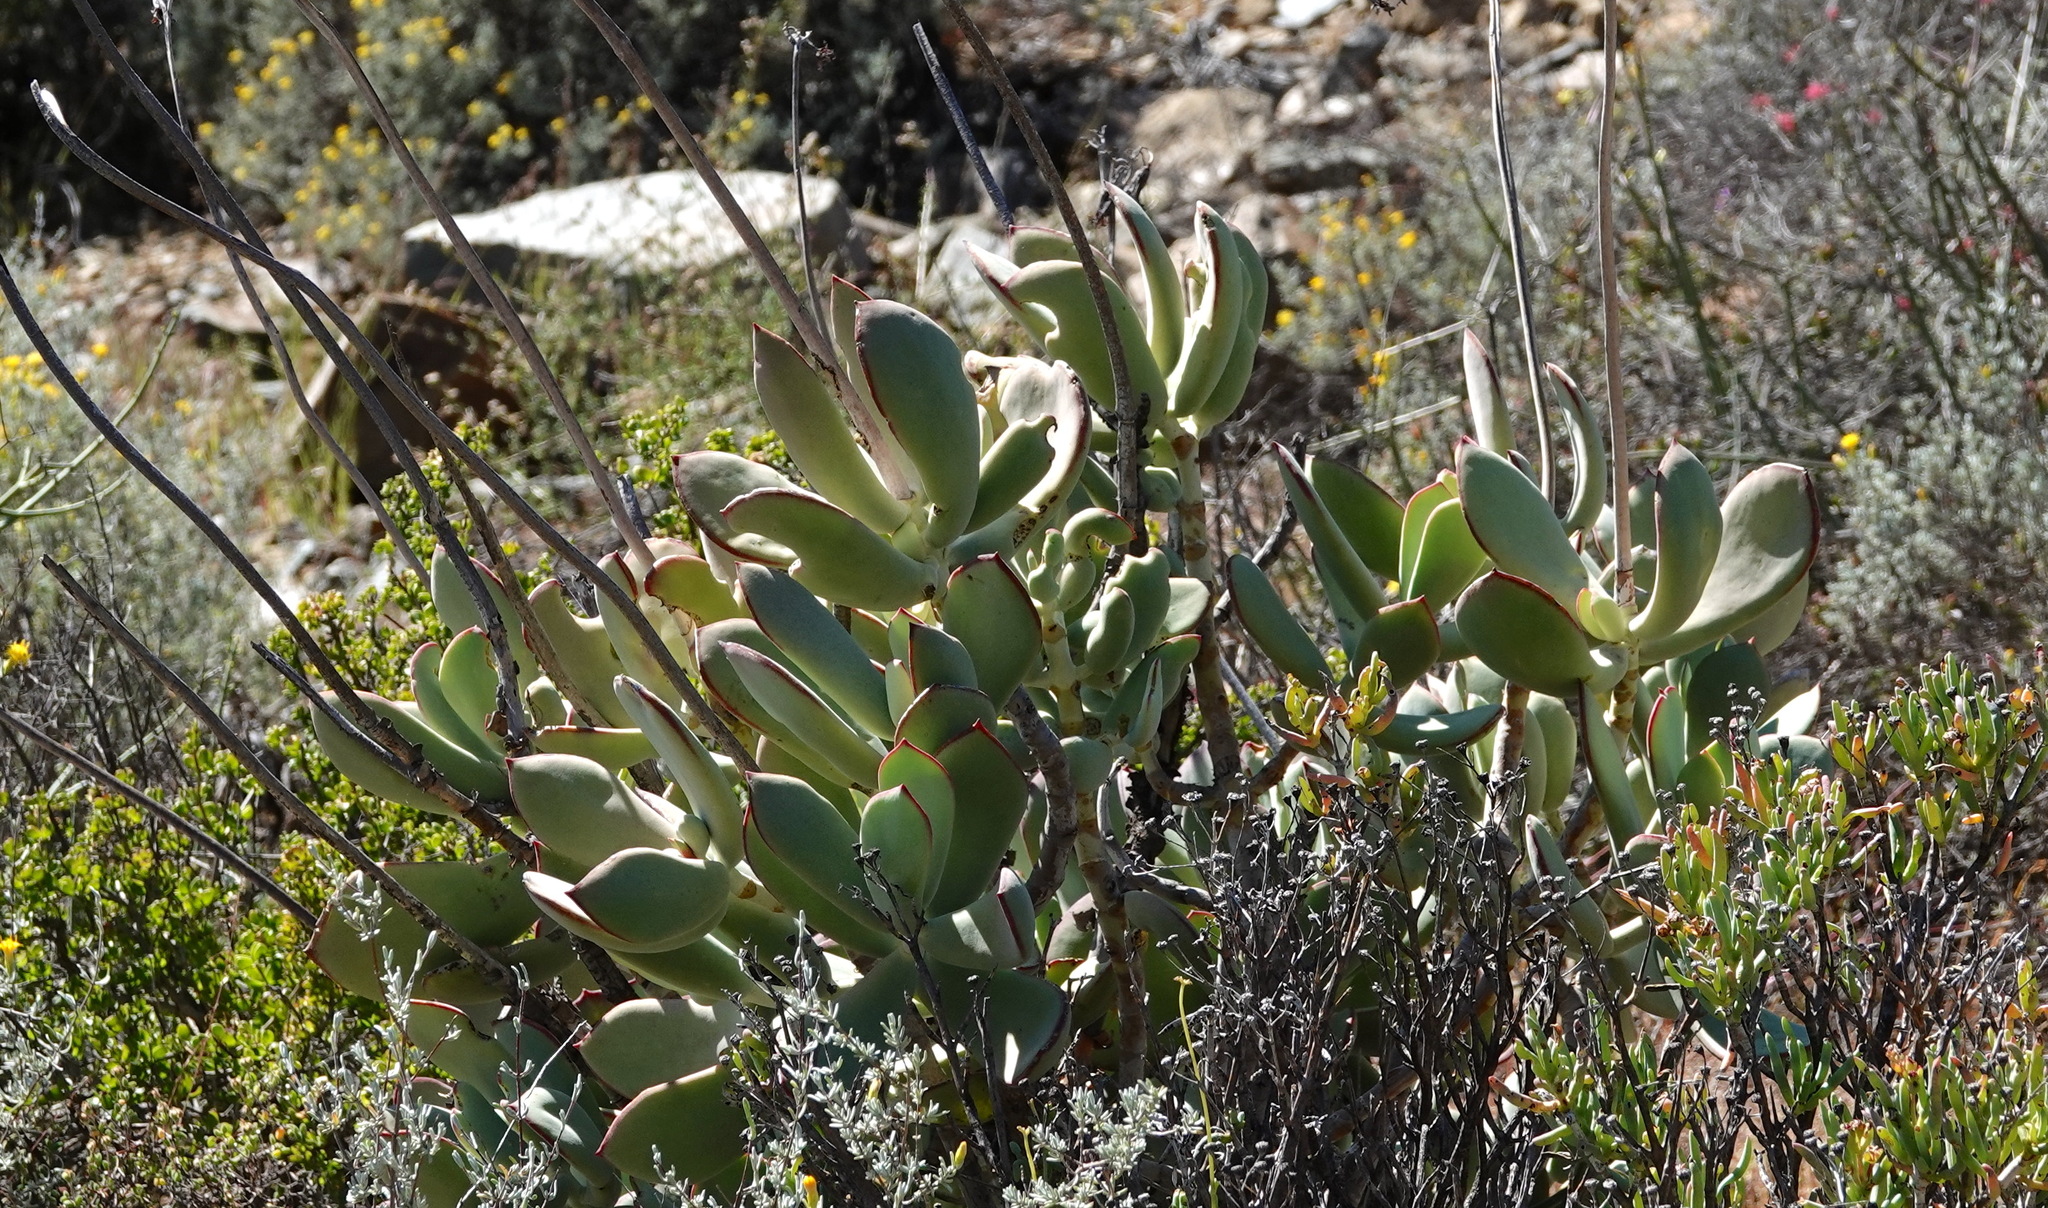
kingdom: Plantae
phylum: Tracheophyta
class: Magnoliopsida
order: Saxifragales
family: Crassulaceae
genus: Cotyledon
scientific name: Cotyledon orbiculata
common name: Pig's ear
